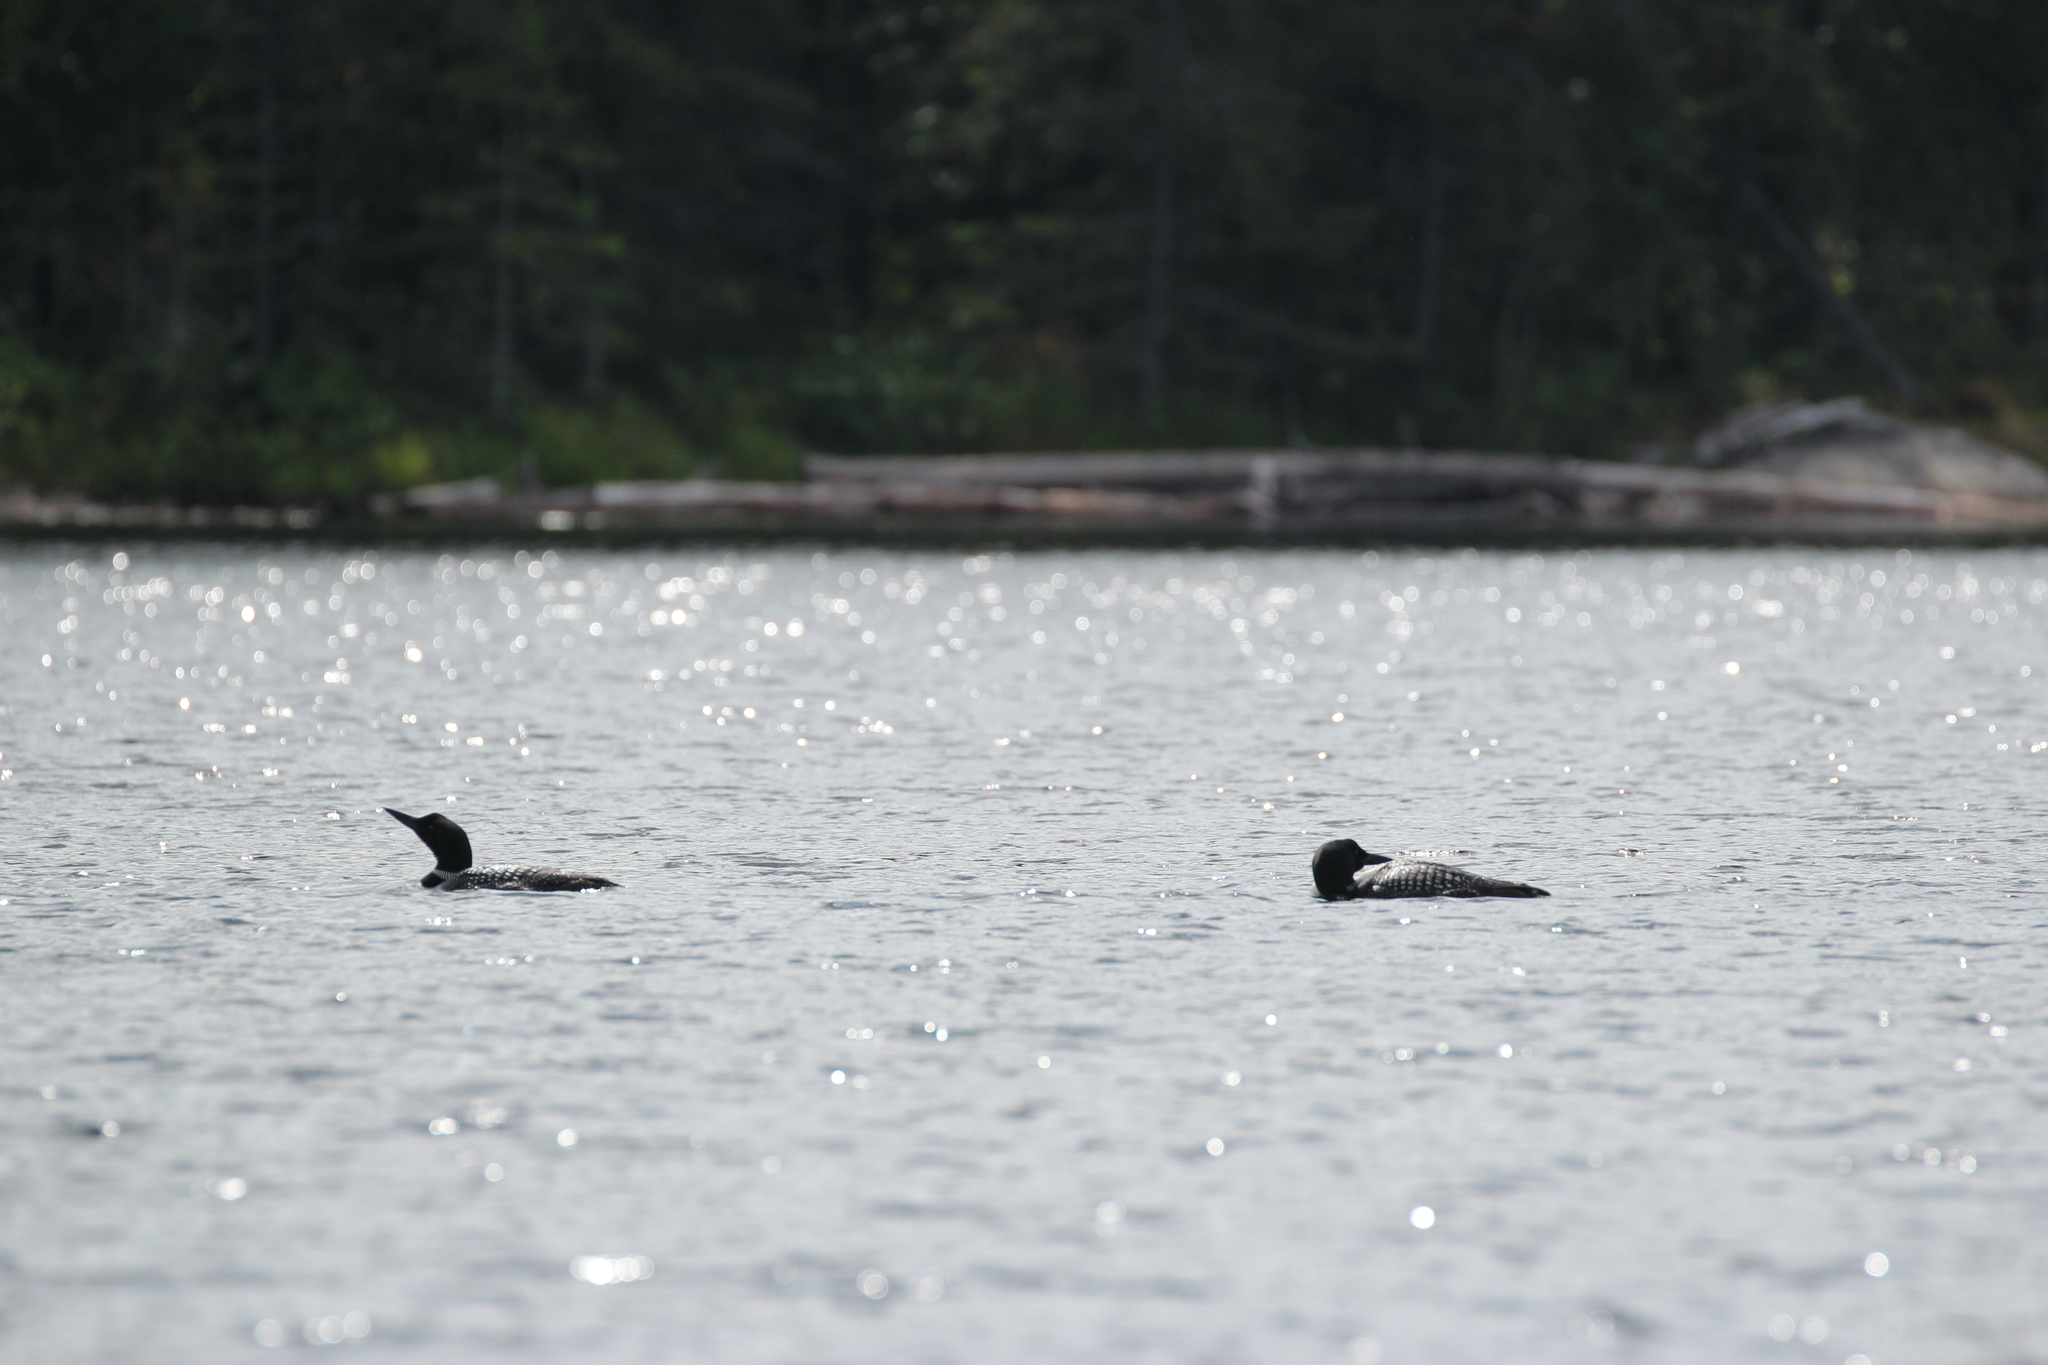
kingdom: Animalia
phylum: Chordata
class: Aves
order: Gaviiformes
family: Gaviidae
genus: Gavia
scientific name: Gavia immer
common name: Common loon
